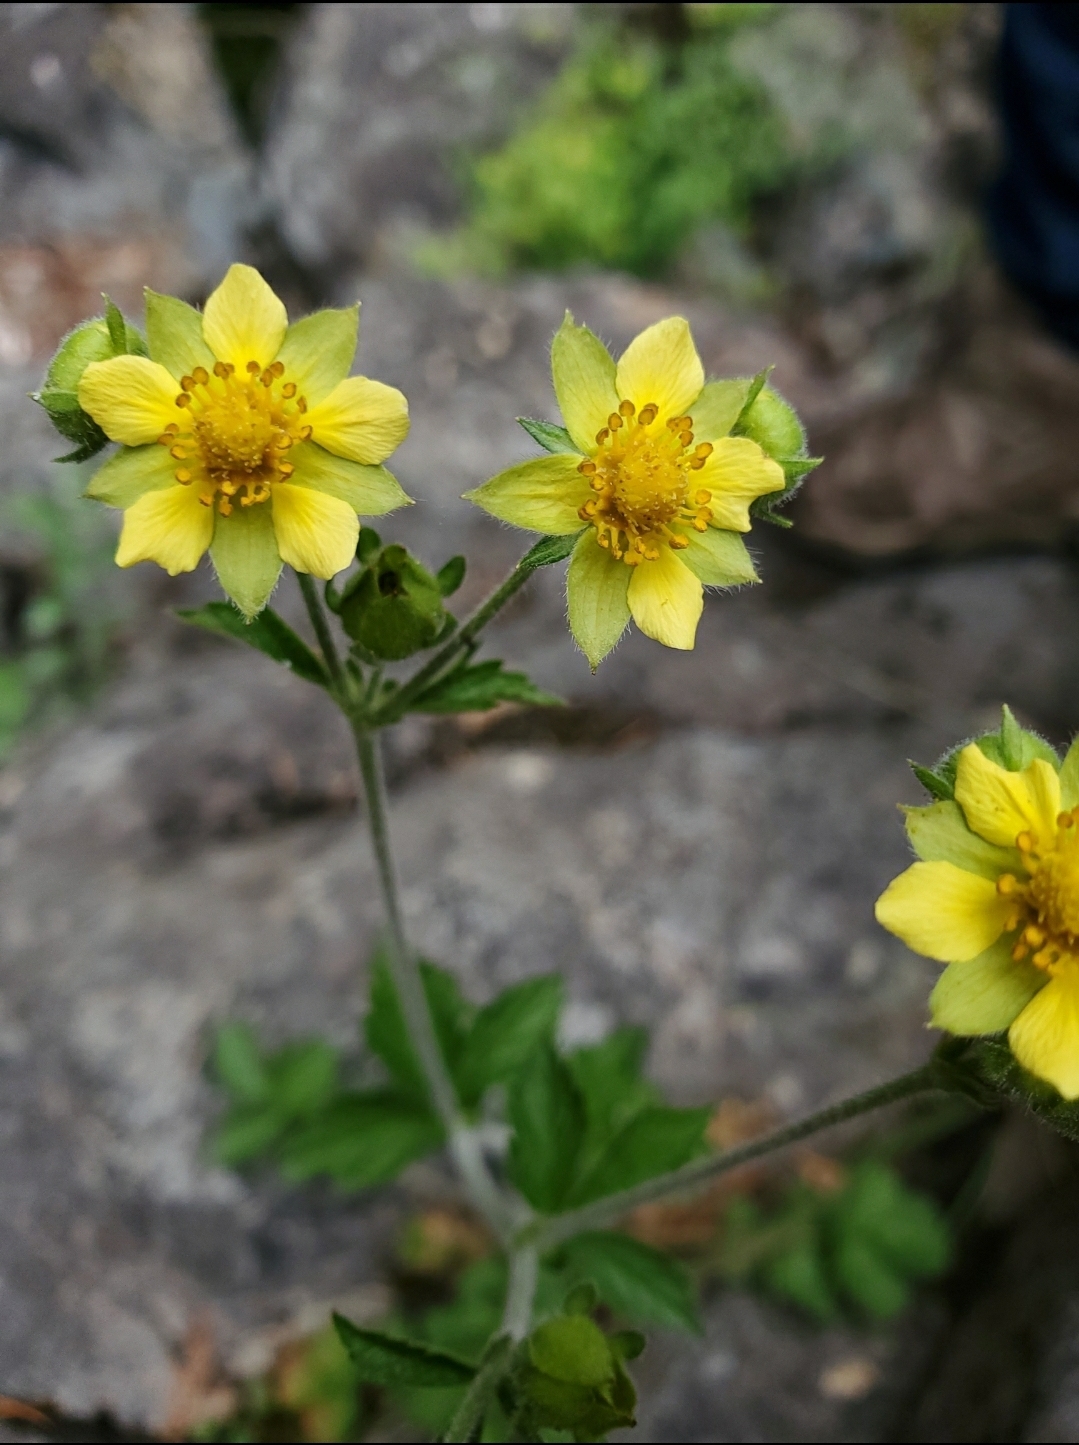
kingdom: Plantae
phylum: Tracheophyta
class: Magnoliopsida
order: Rosales
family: Rosaceae
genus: Drymocallis
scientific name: Drymocallis glandulosa
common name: Sticky cinquefoil
